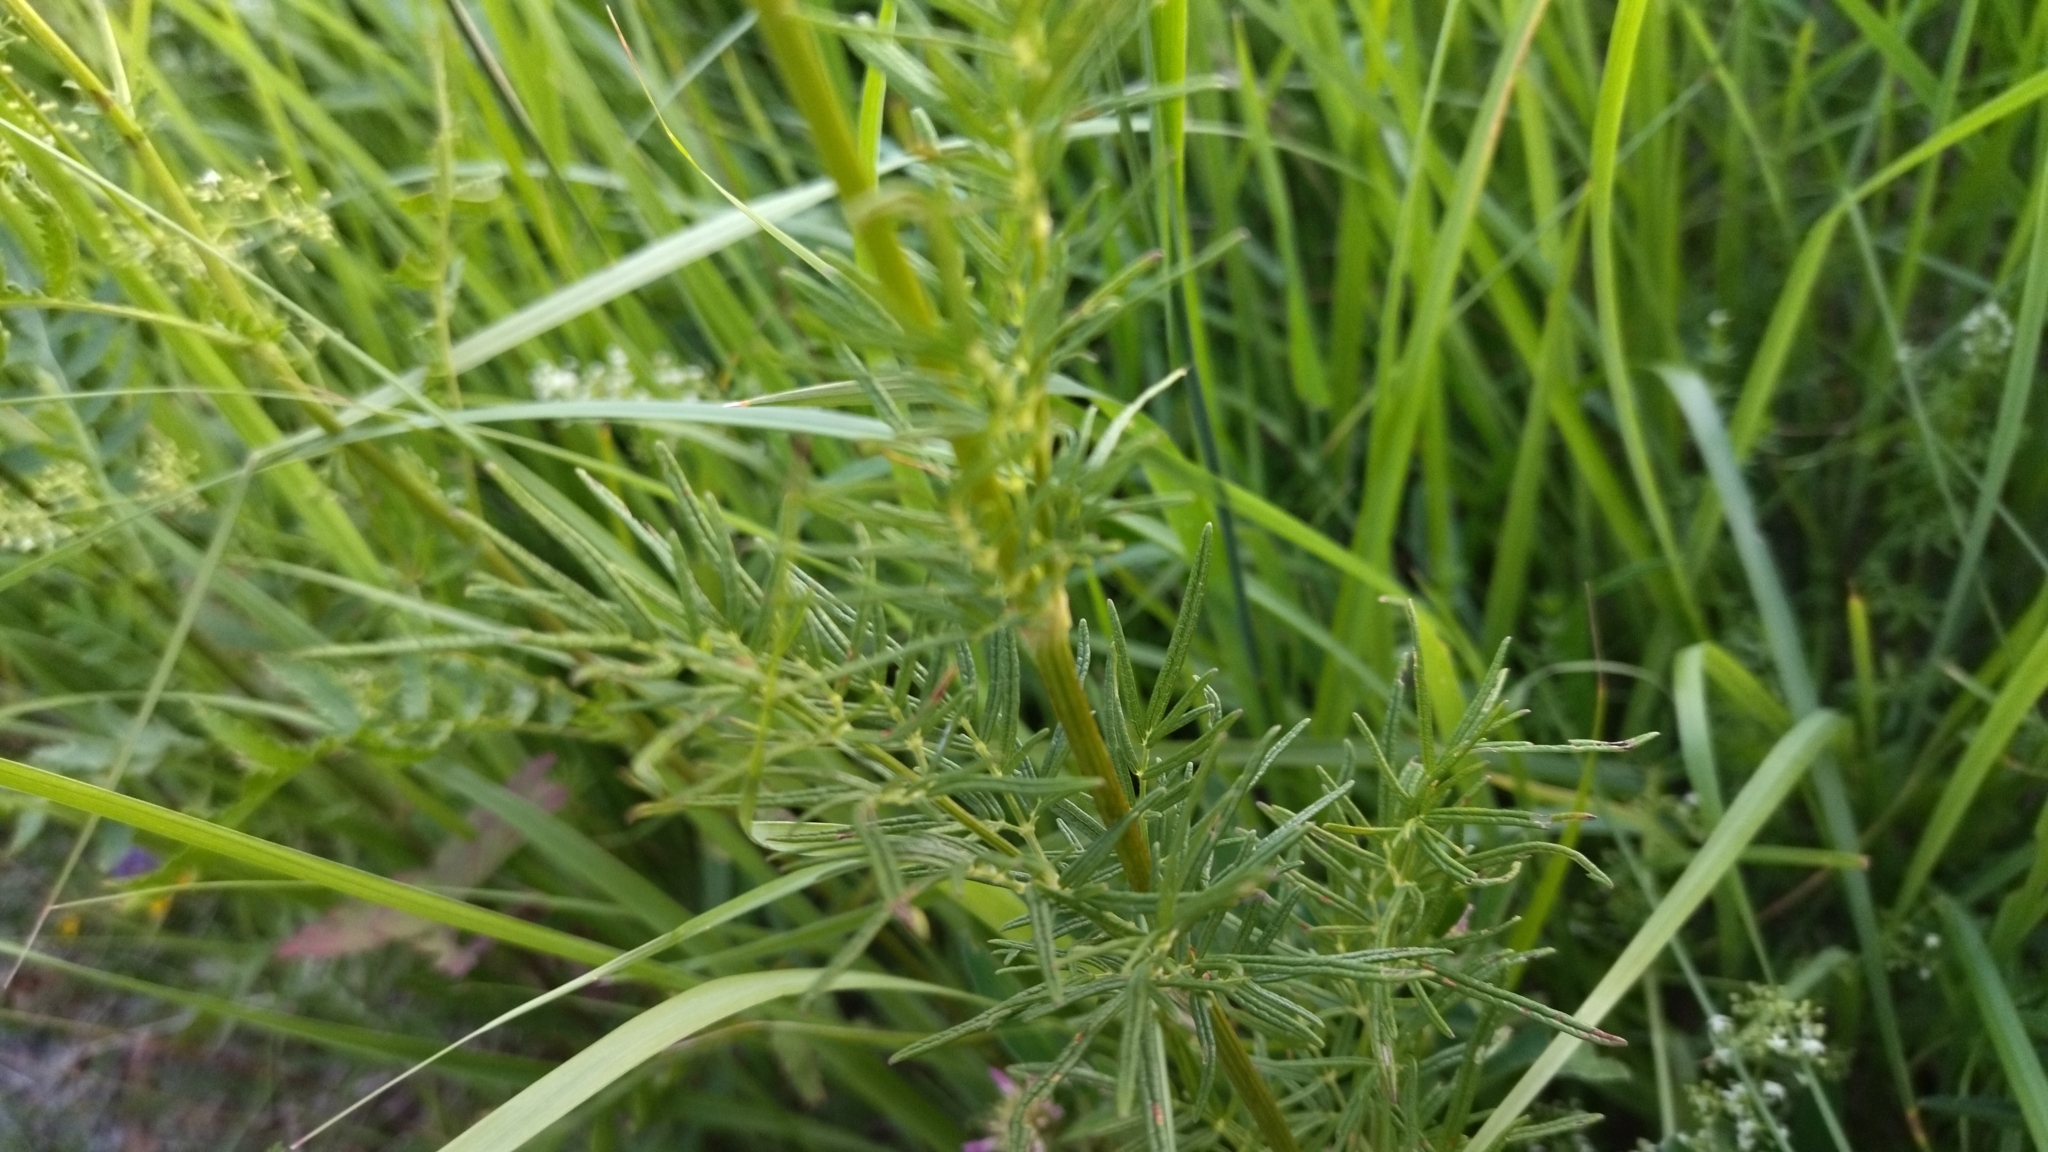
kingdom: Plantae
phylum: Tracheophyta
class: Magnoliopsida
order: Ranunculales
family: Ranunculaceae
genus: Thalictrum
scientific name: Thalictrum lucidum
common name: Shining meadow-rue
